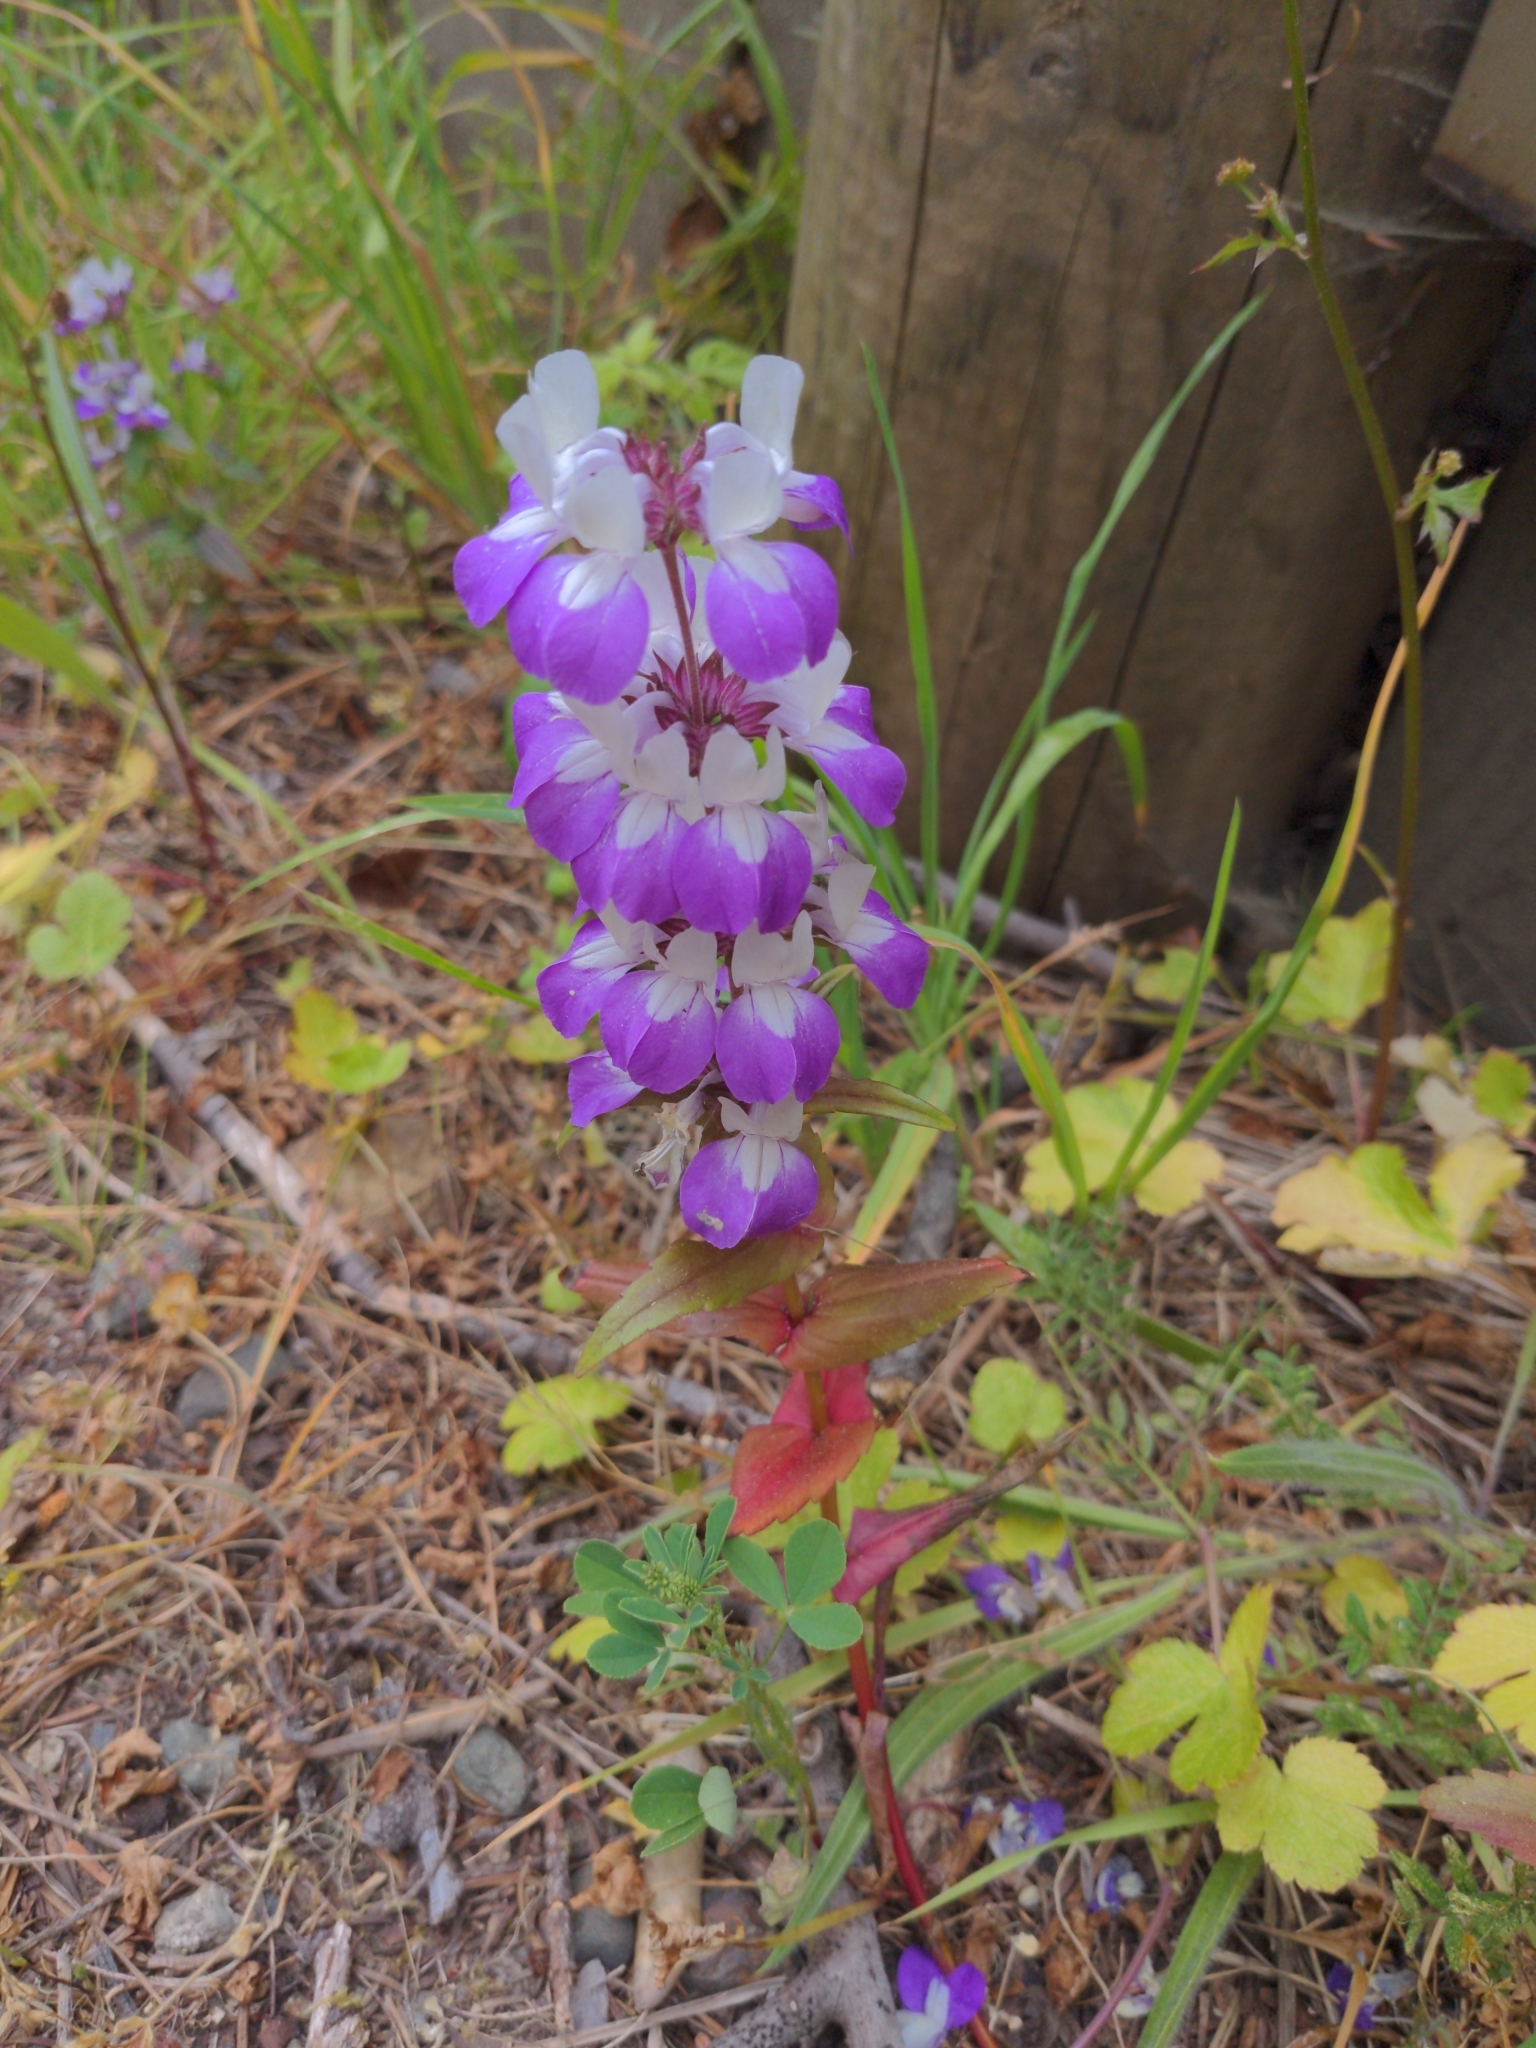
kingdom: Plantae
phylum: Tracheophyta
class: Magnoliopsida
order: Lamiales
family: Plantaginaceae
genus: Collinsia
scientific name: Collinsia heterophylla
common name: Chinese-houses
